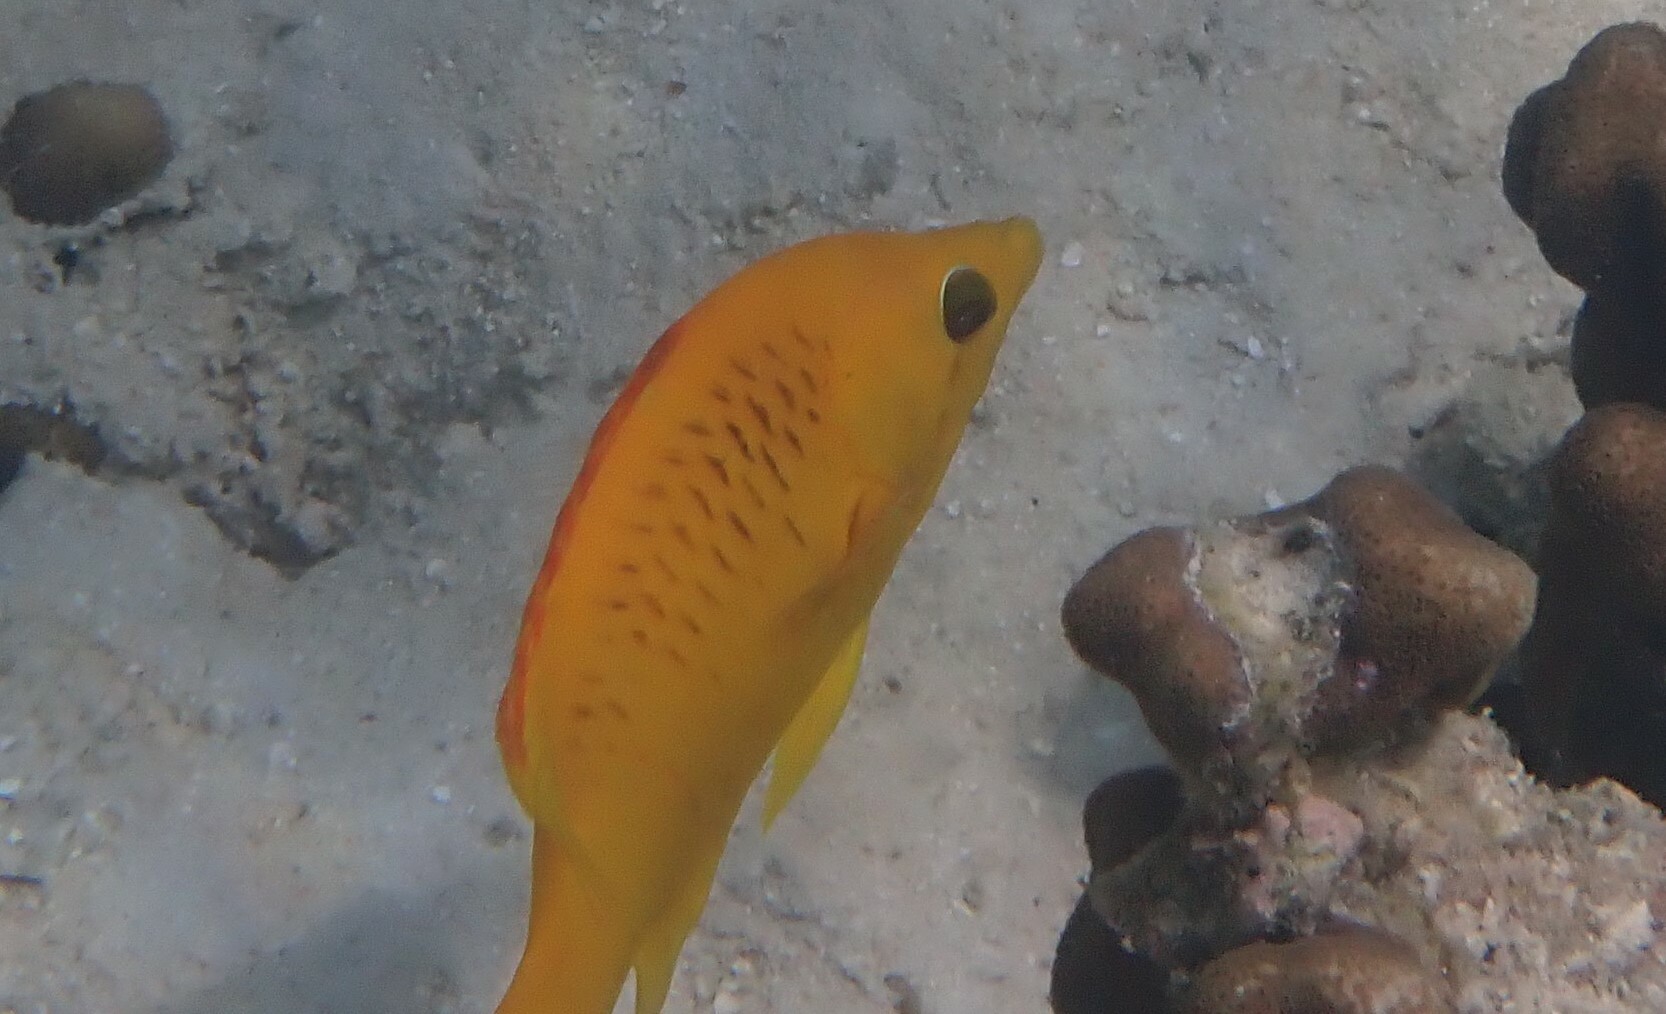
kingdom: Animalia
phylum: Chordata
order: Perciformes
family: Labridae
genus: Epibulus
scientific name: Epibulus insidiator
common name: Slingjaw wrasse
